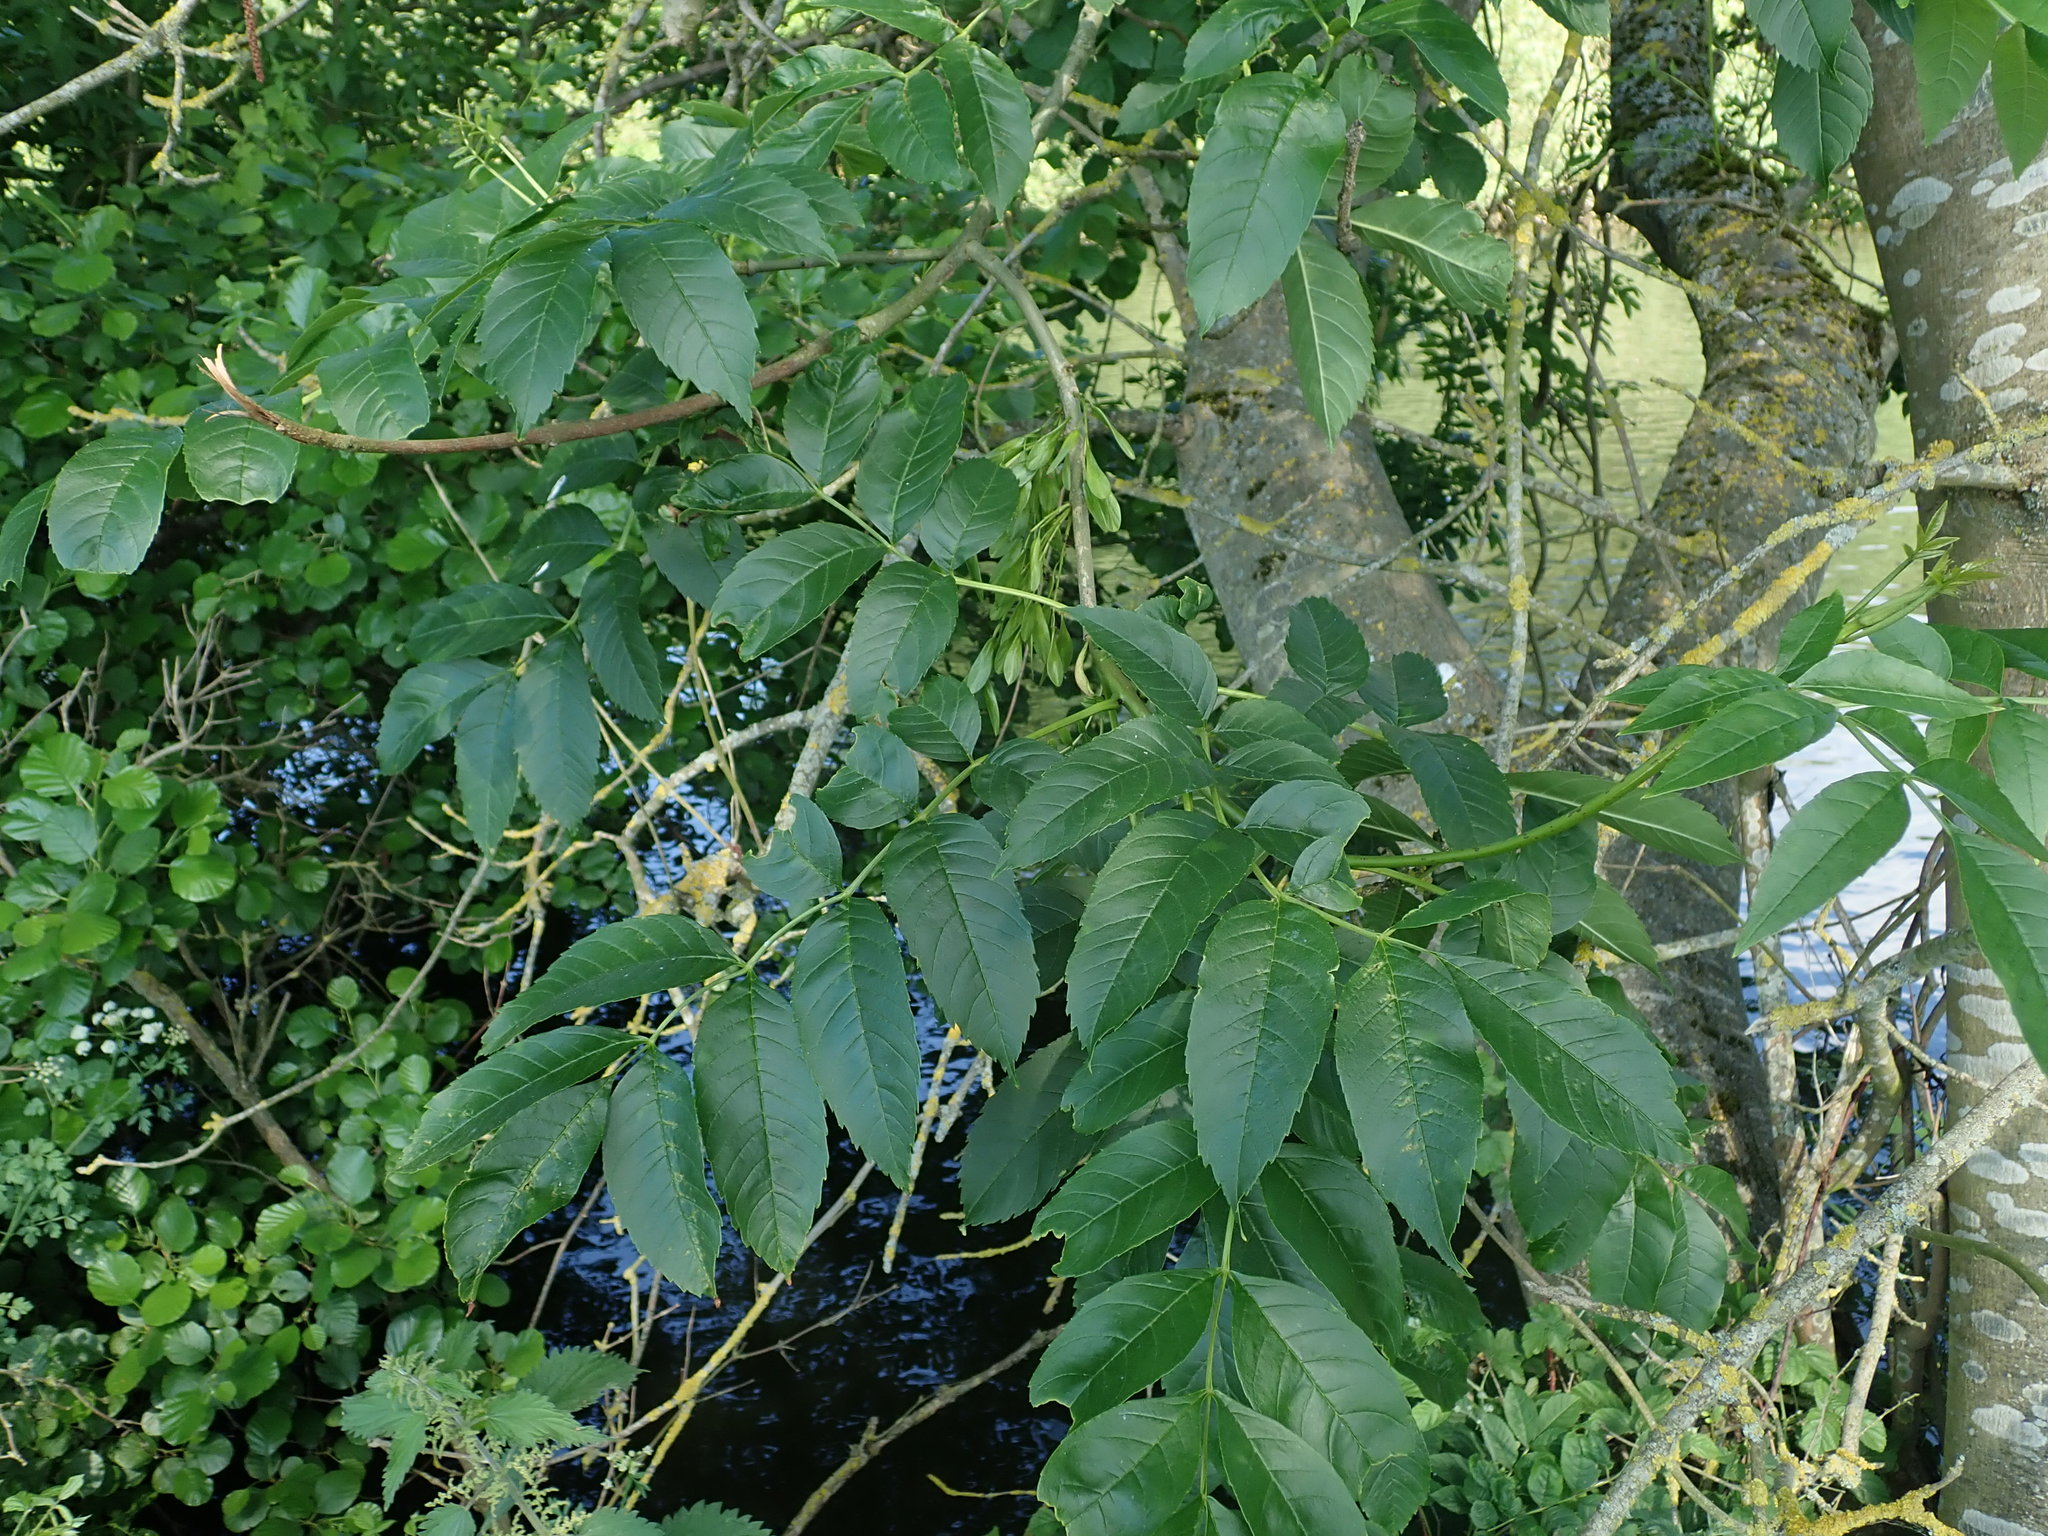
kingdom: Plantae
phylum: Tracheophyta
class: Magnoliopsida
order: Lamiales
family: Oleaceae
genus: Fraxinus
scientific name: Fraxinus excelsior
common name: European ash
